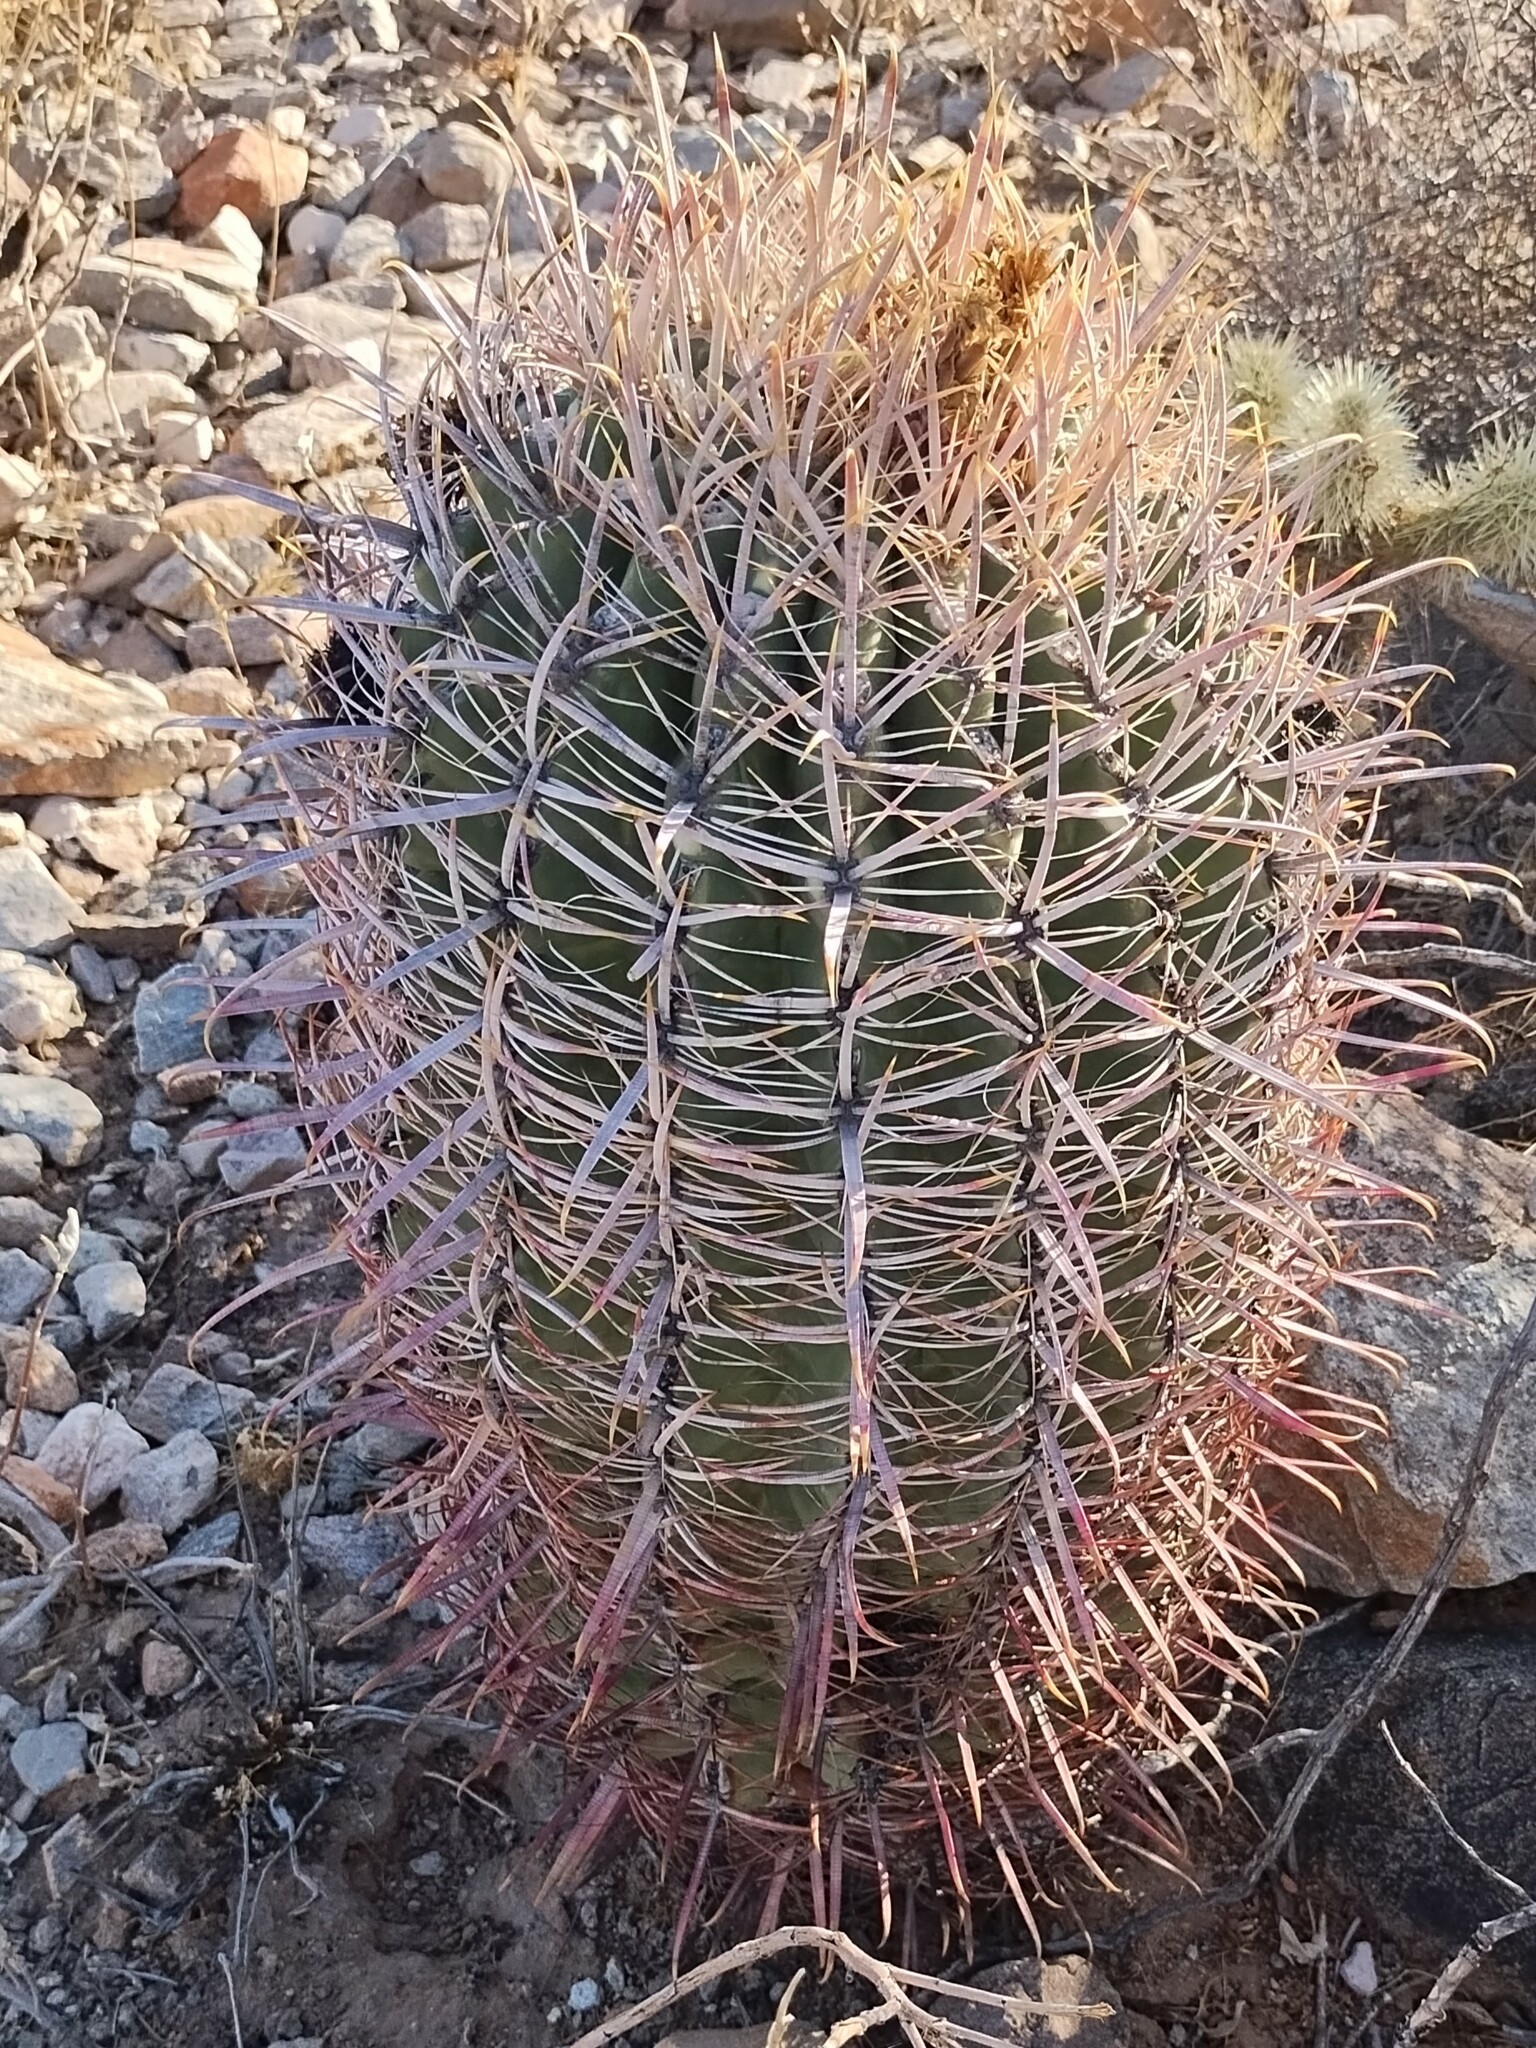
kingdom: Plantae
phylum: Tracheophyta
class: Magnoliopsida
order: Caryophyllales
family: Cactaceae
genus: Ferocactus
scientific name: Ferocactus cylindraceus
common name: California barrel cactus
